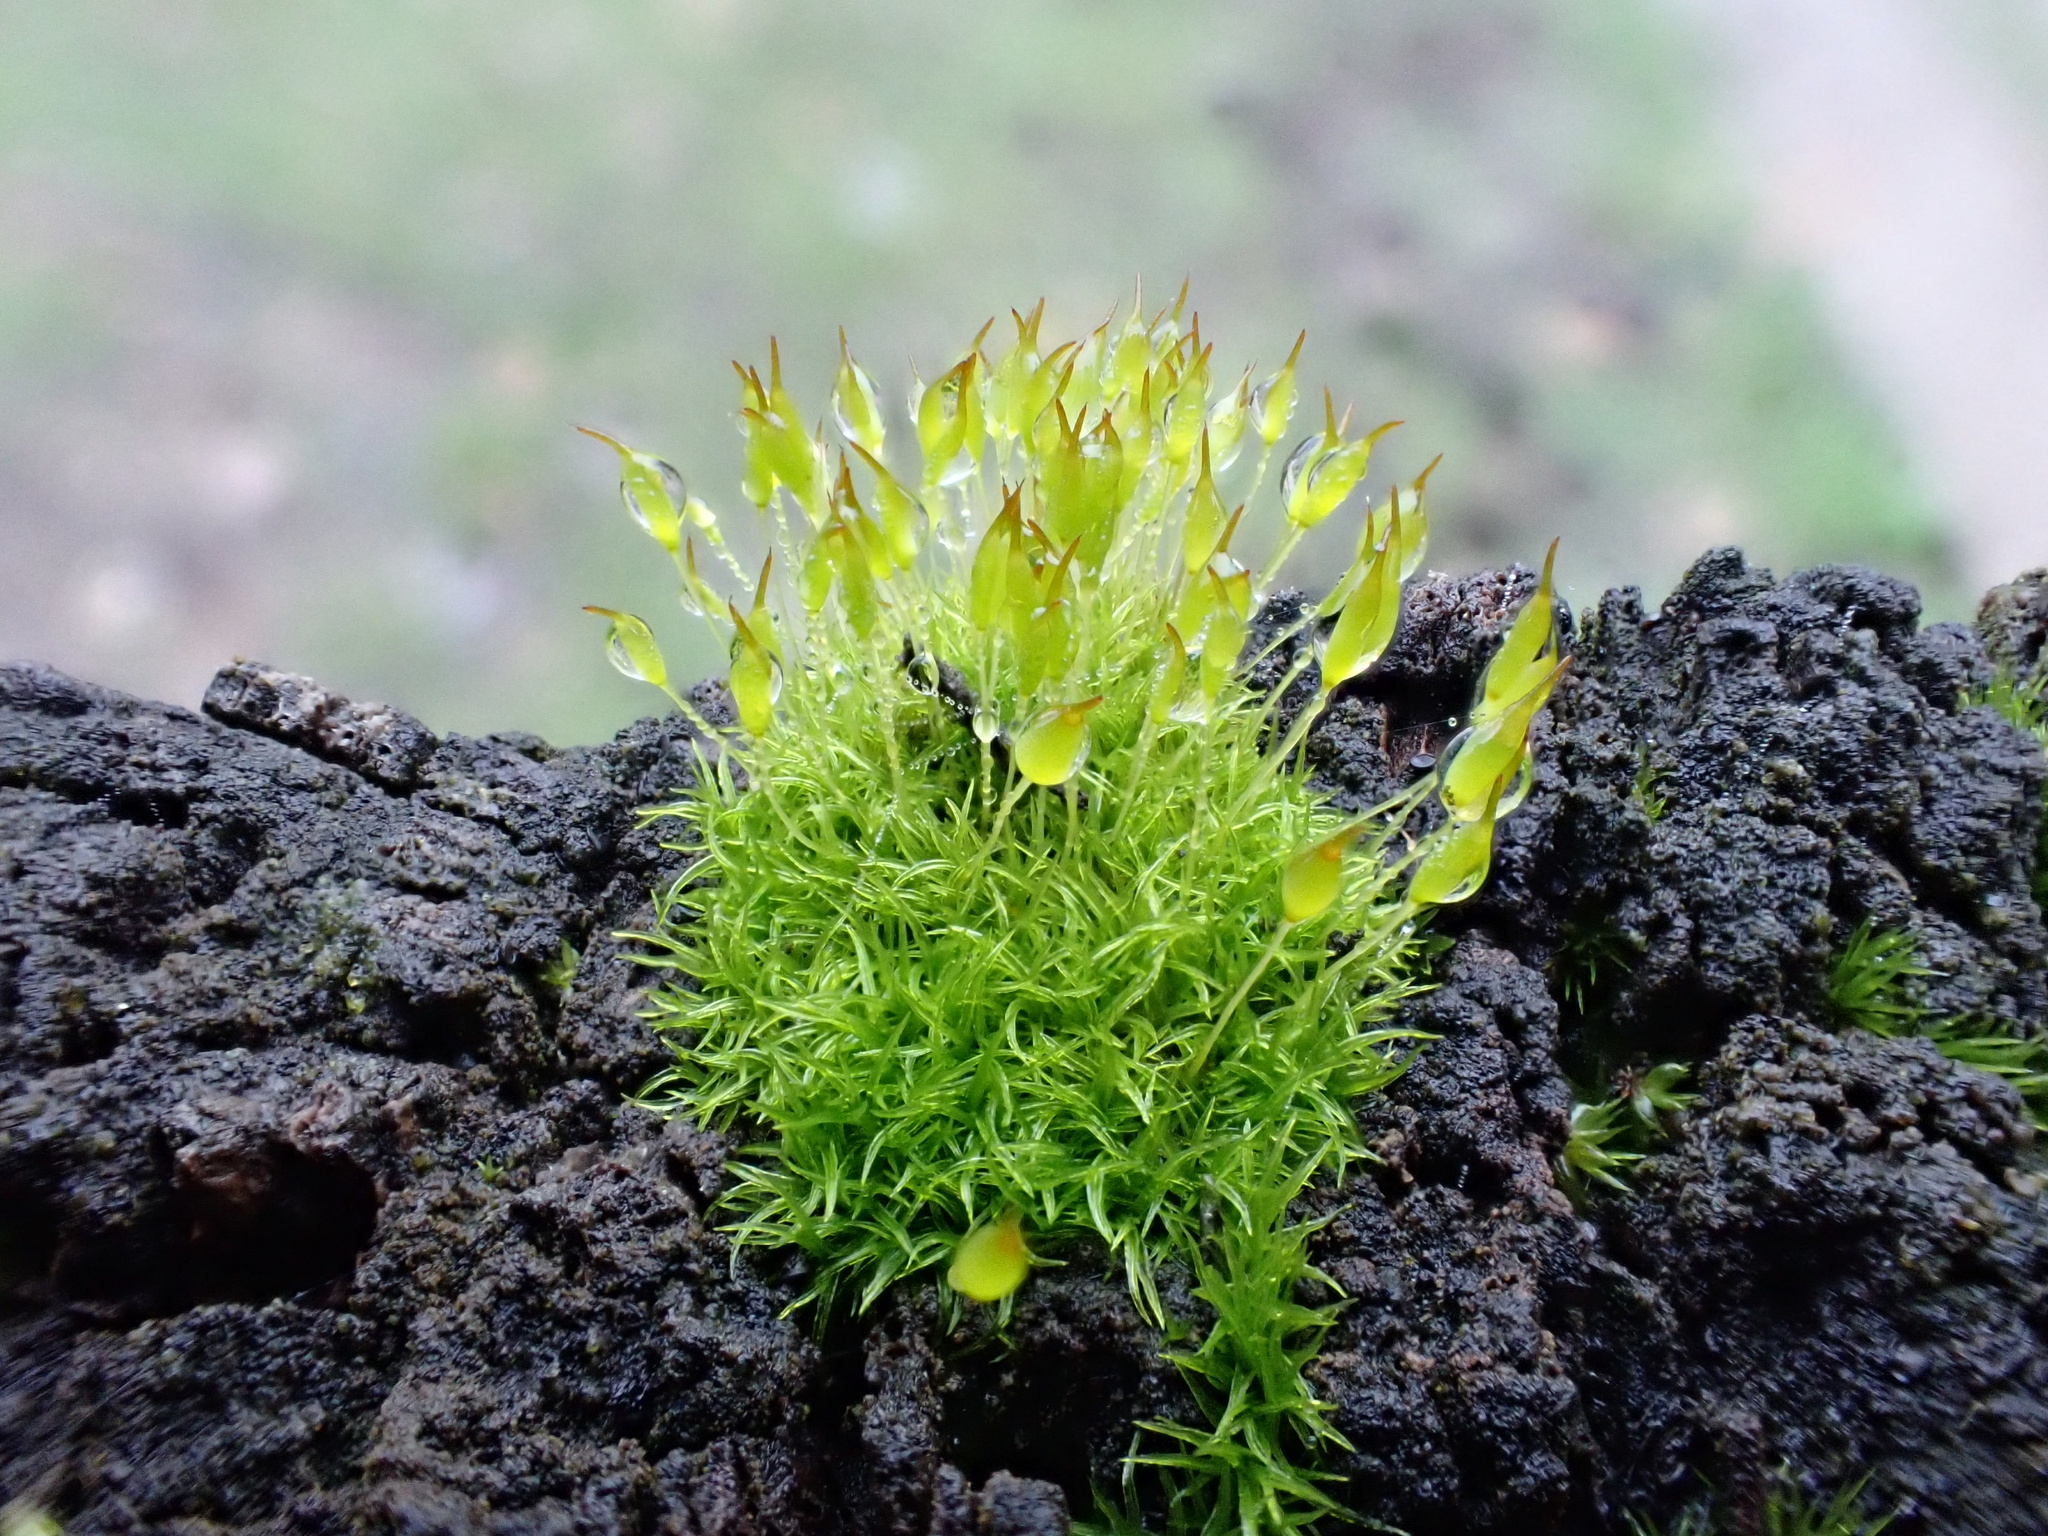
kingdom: Plantae
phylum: Bryophyta
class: Bryopsida
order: Dicranales
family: Rhabdoweisiaceae
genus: Dicranoweisia
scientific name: Dicranoweisia cirrata
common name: Common pincushion
